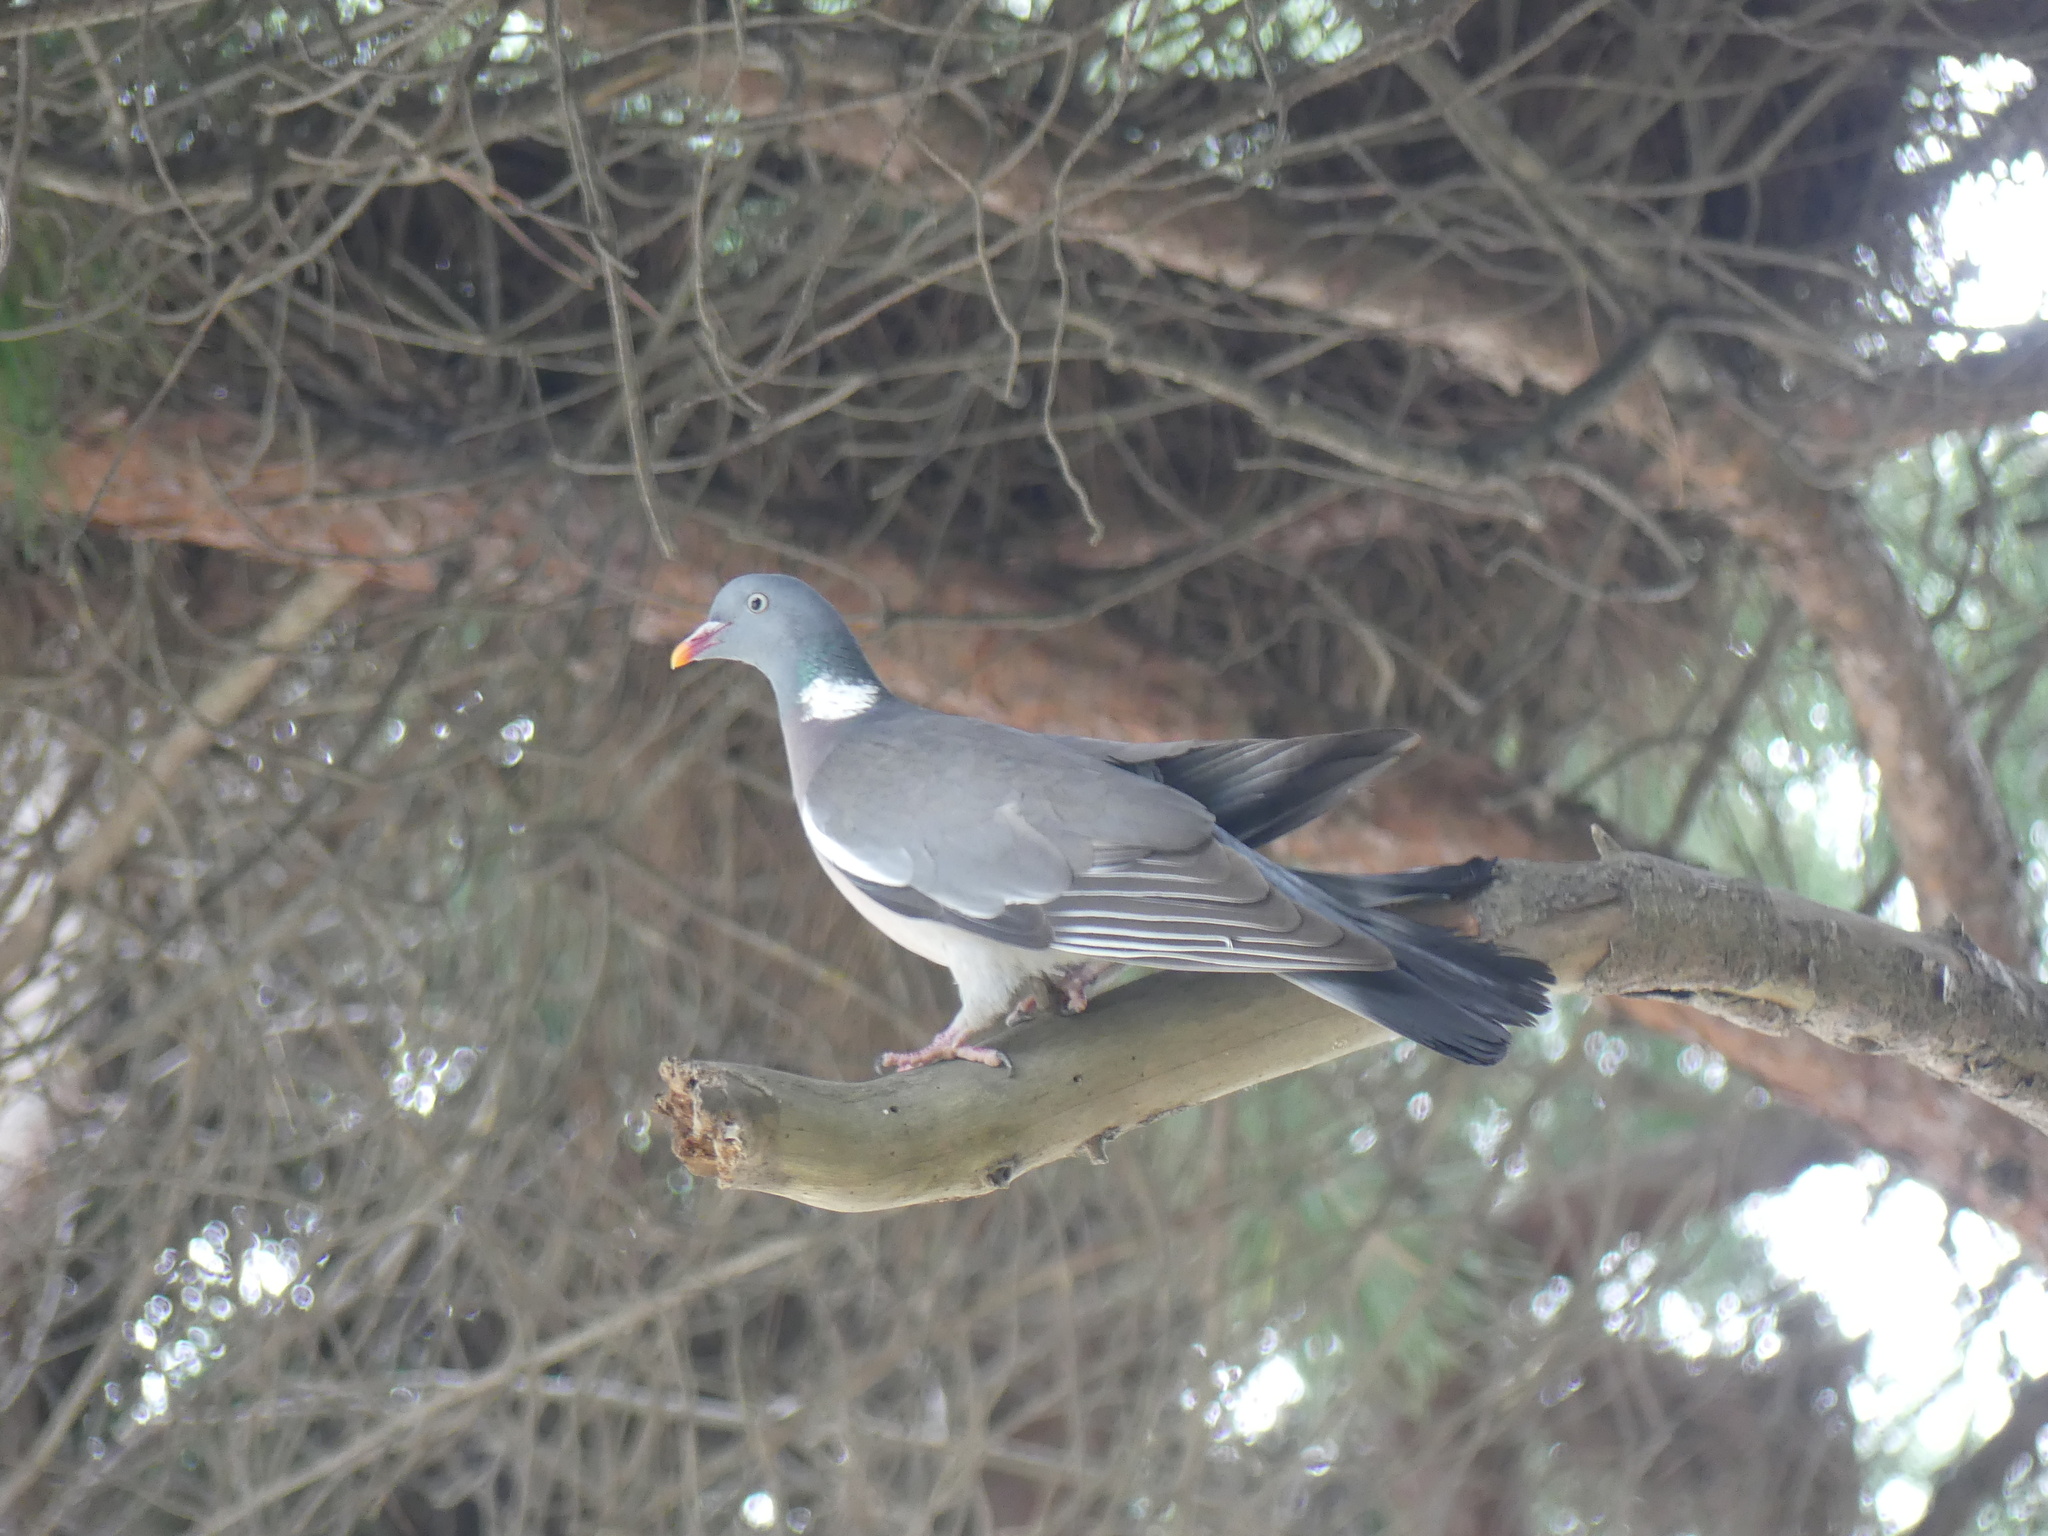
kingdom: Animalia
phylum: Chordata
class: Aves
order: Columbiformes
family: Columbidae
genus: Columba
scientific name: Columba palumbus
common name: Common wood pigeon
